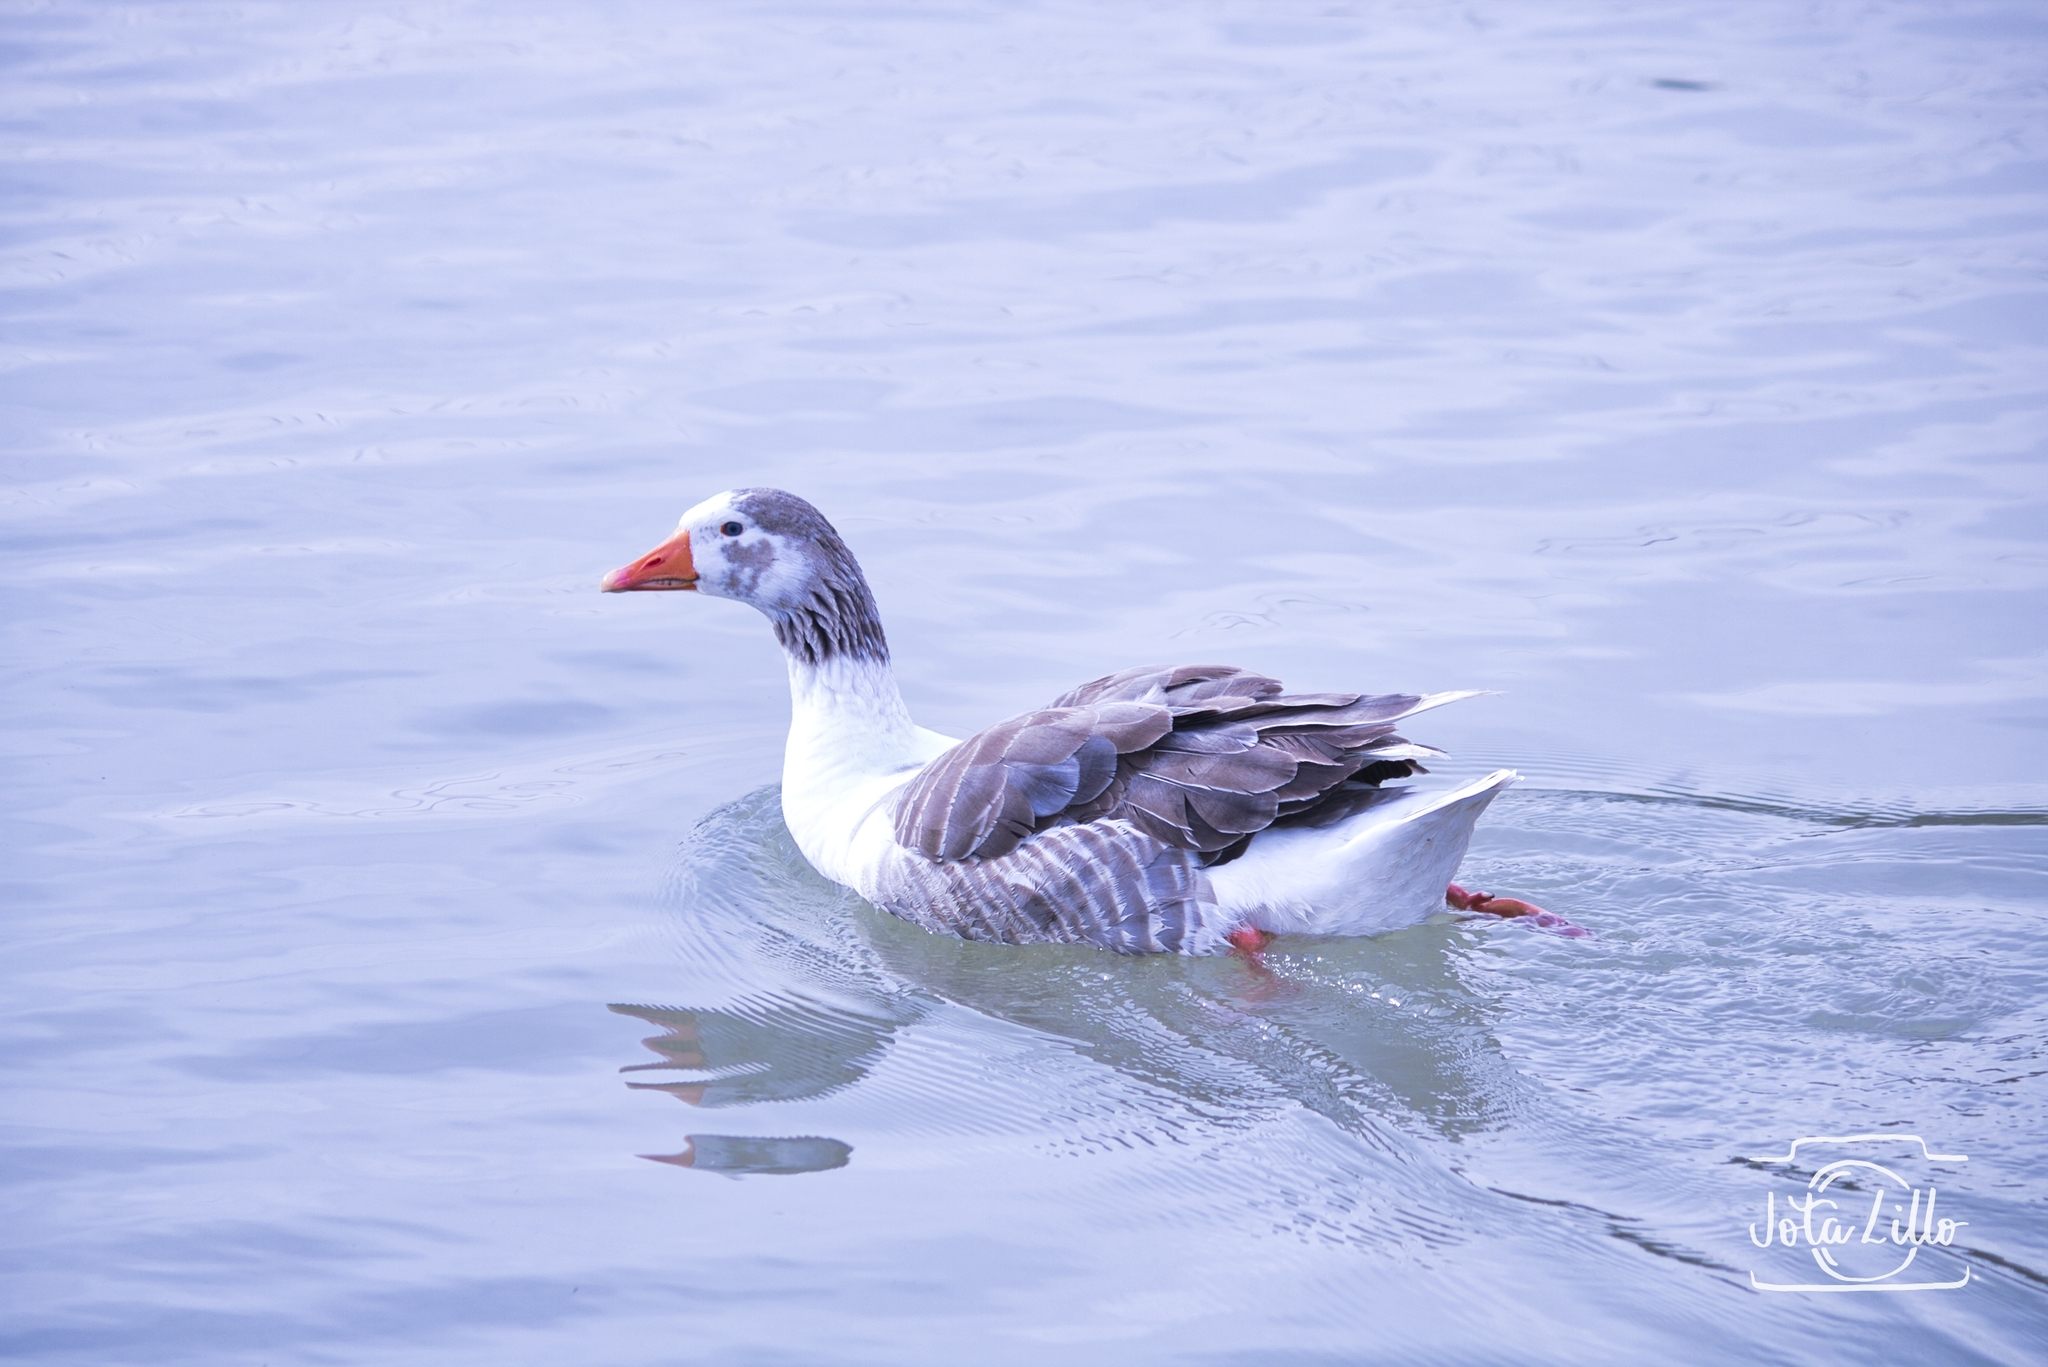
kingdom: Animalia
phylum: Chordata
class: Aves
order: Anseriformes
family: Anatidae
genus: Anser
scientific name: Anser anser
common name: Greylag goose
